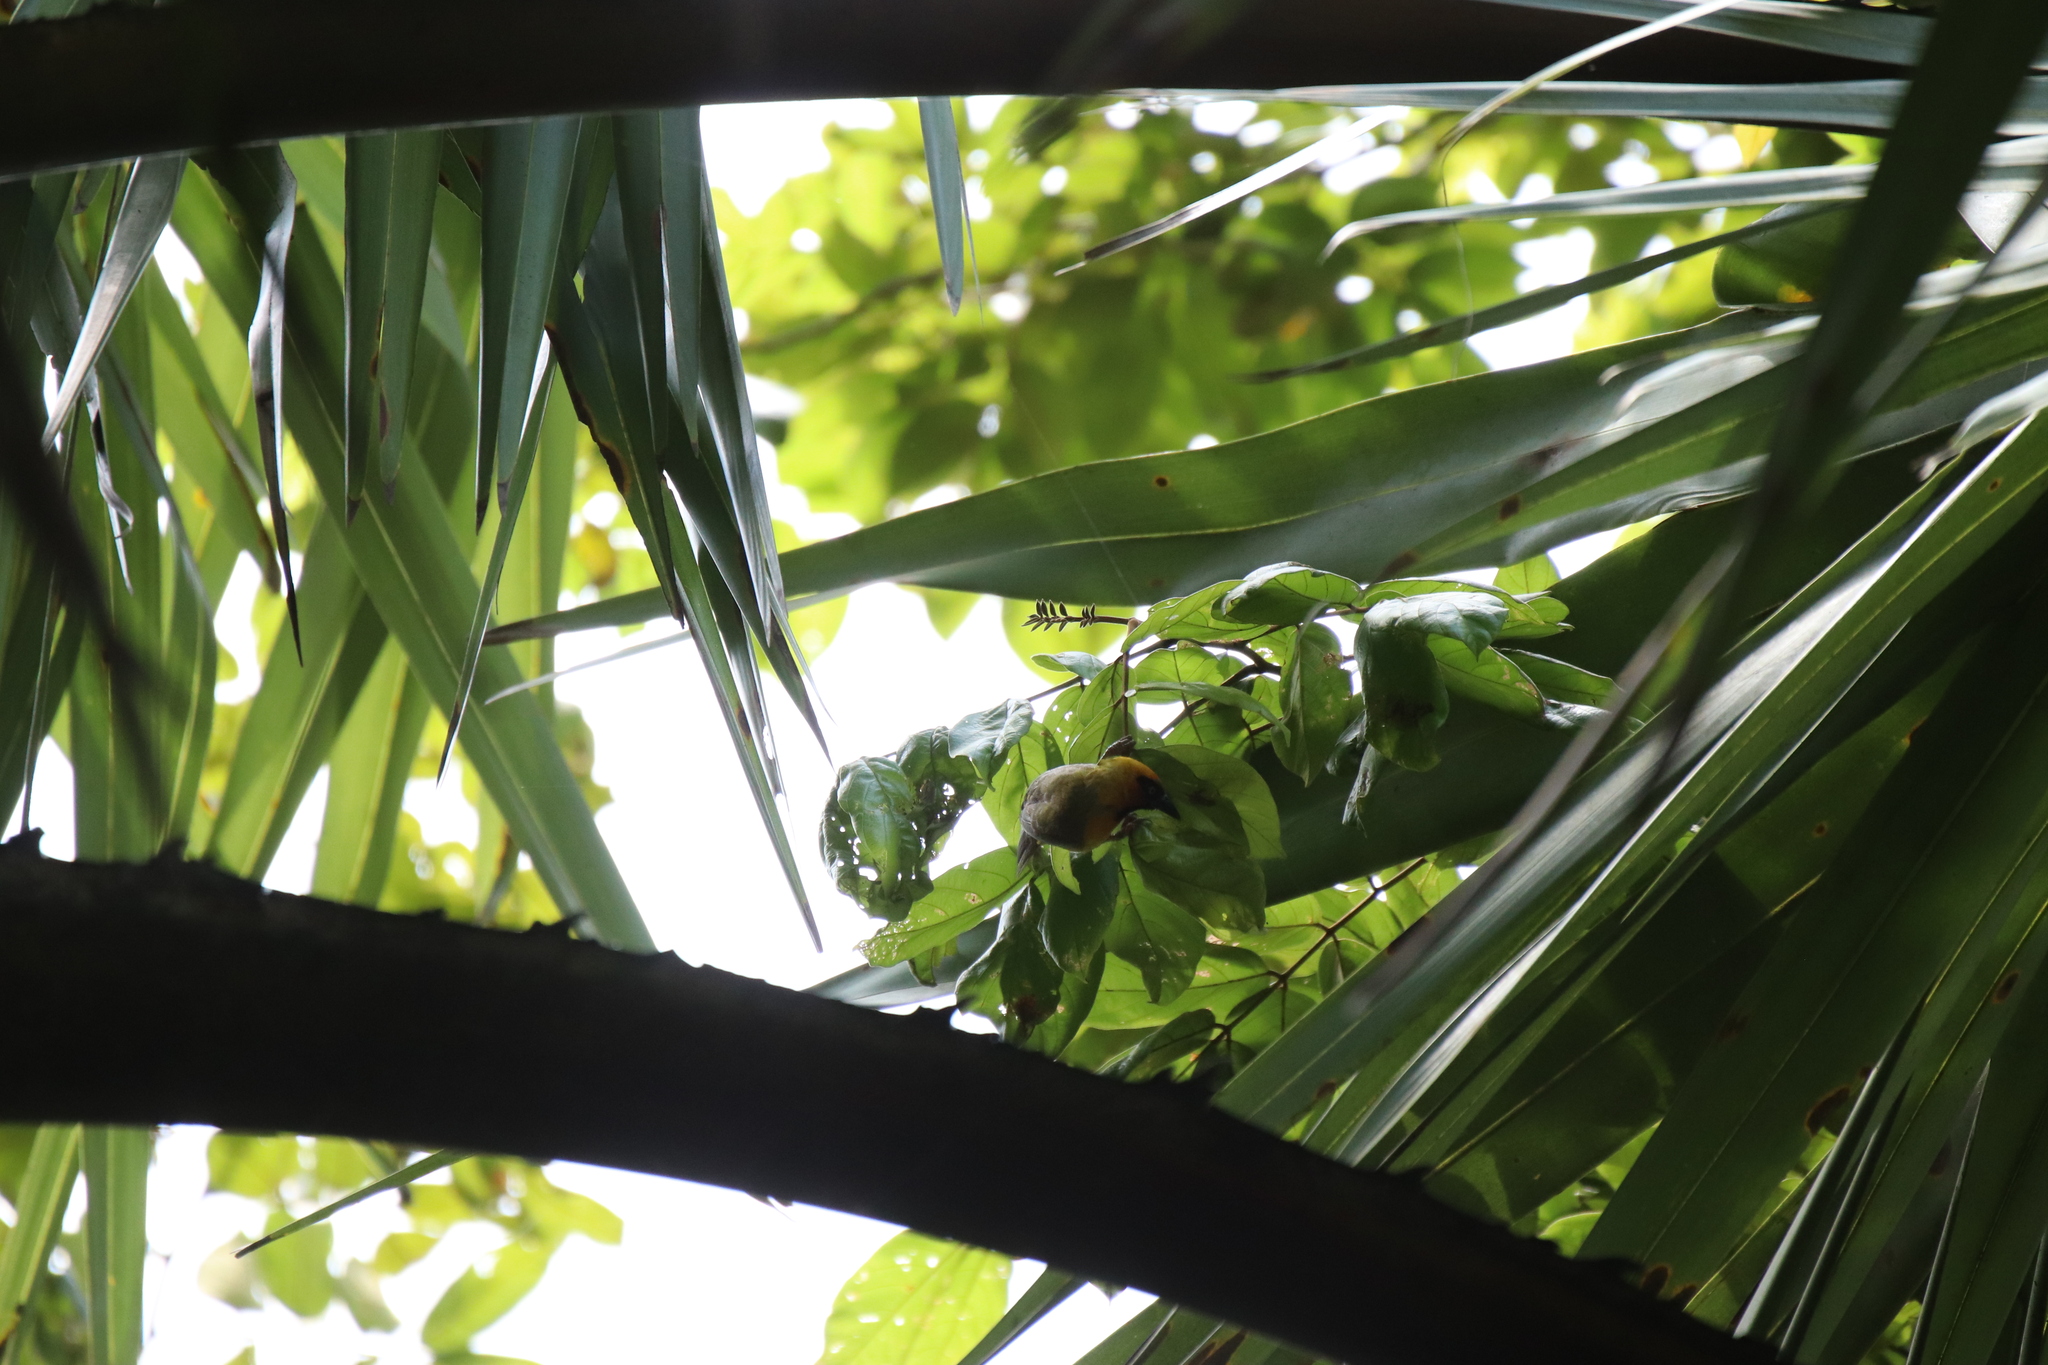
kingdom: Animalia
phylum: Chordata
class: Aves
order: Passeriformes
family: Ploceidae
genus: Ploceus
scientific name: Ploceus brachypterus
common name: Olive-naped weaver
